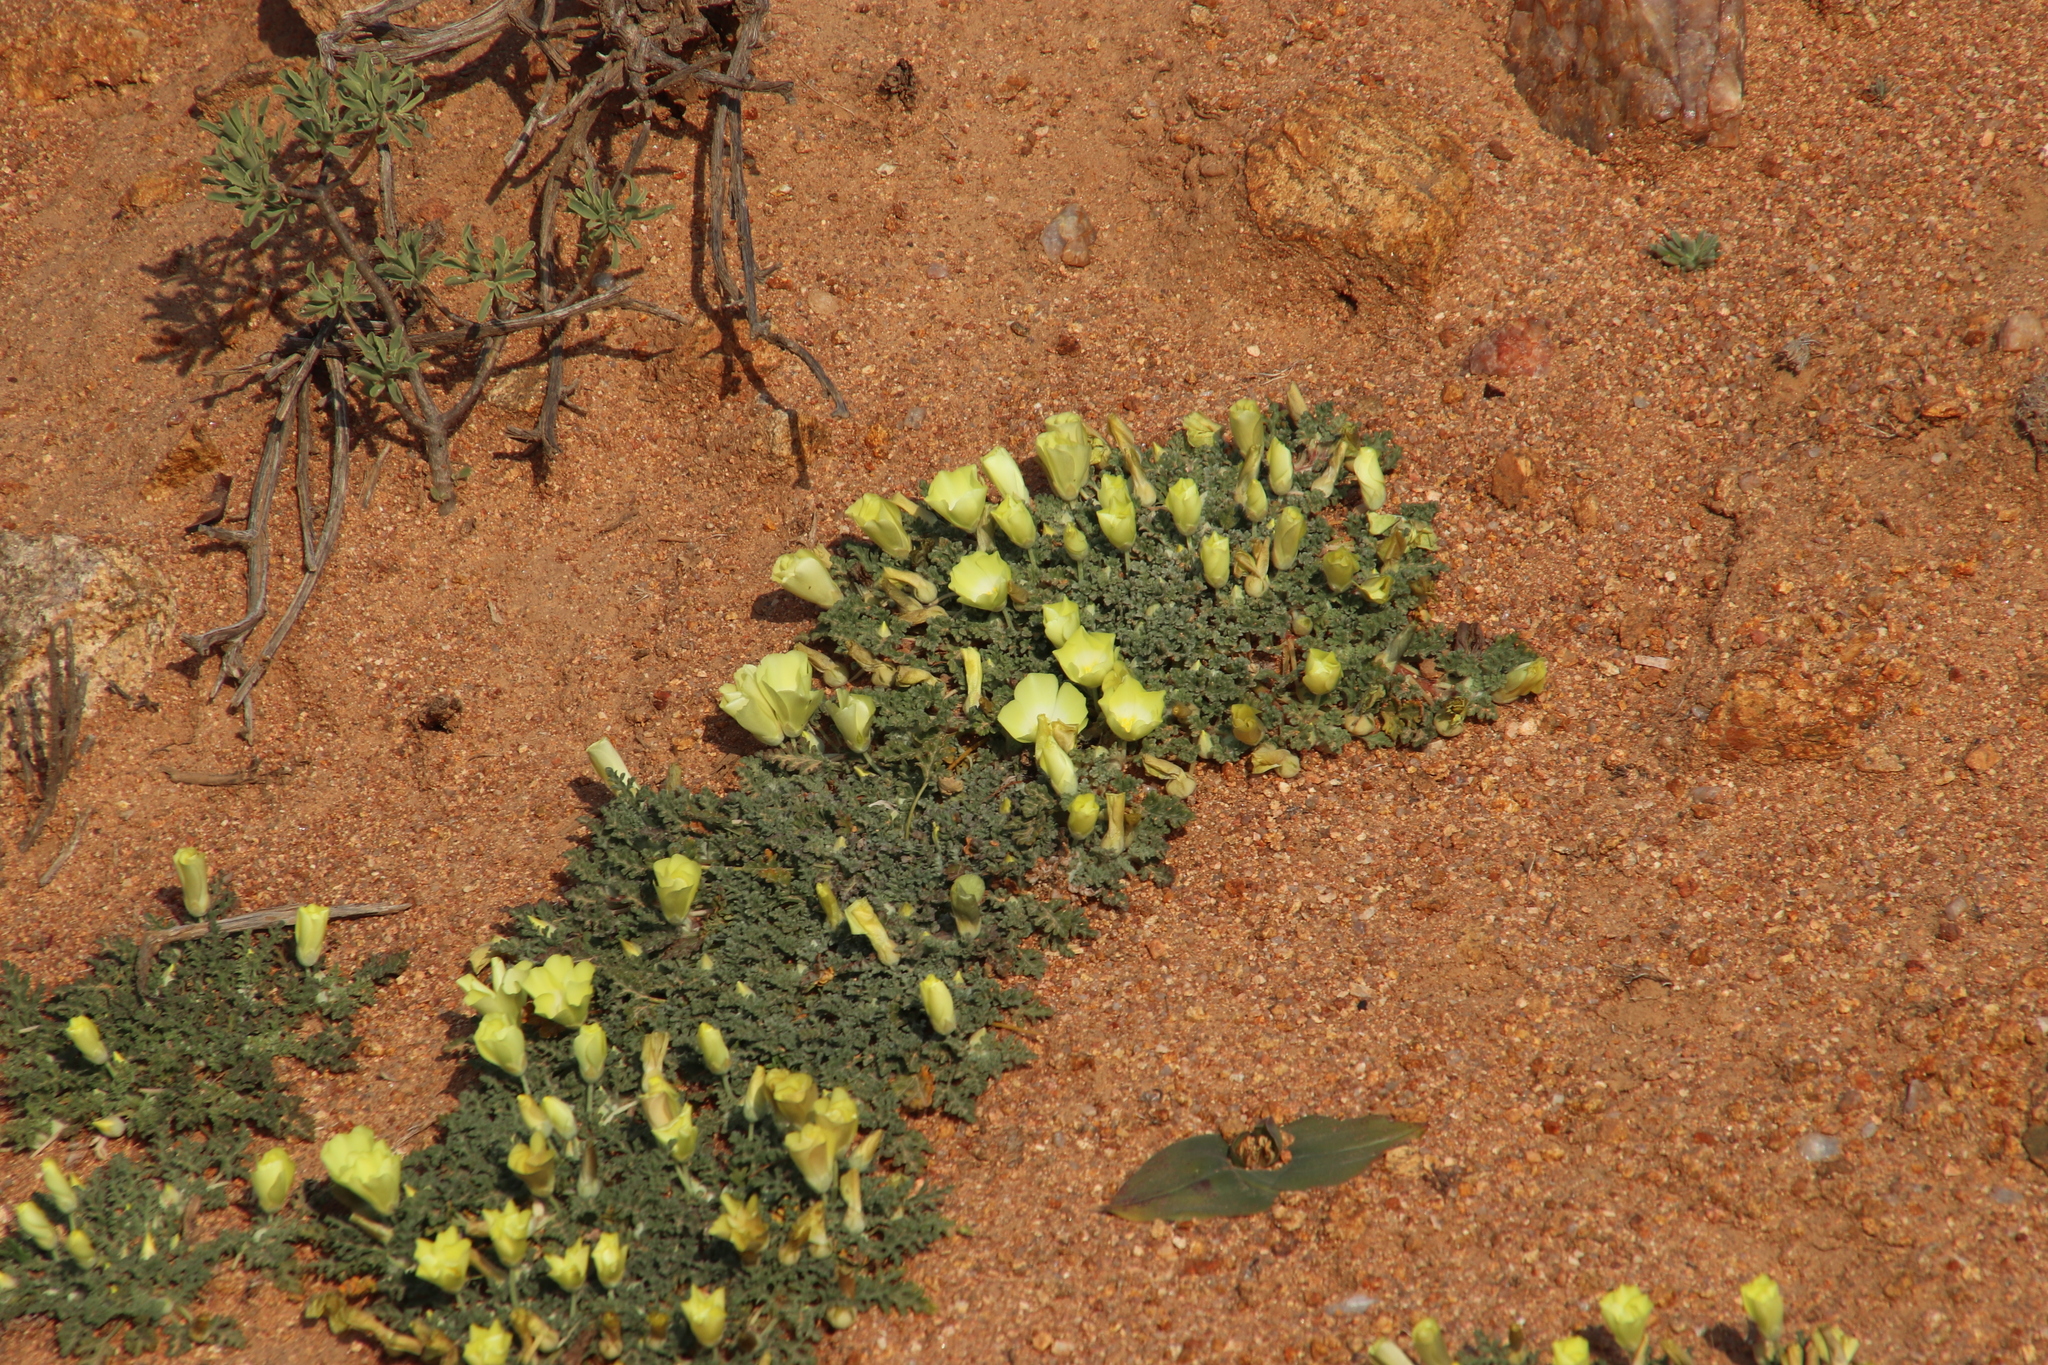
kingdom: Plantae
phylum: Tracheophyta
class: Magnoliopsida
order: Malvales
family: Neuradaceae
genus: Grielum
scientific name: Grielum humifusum
